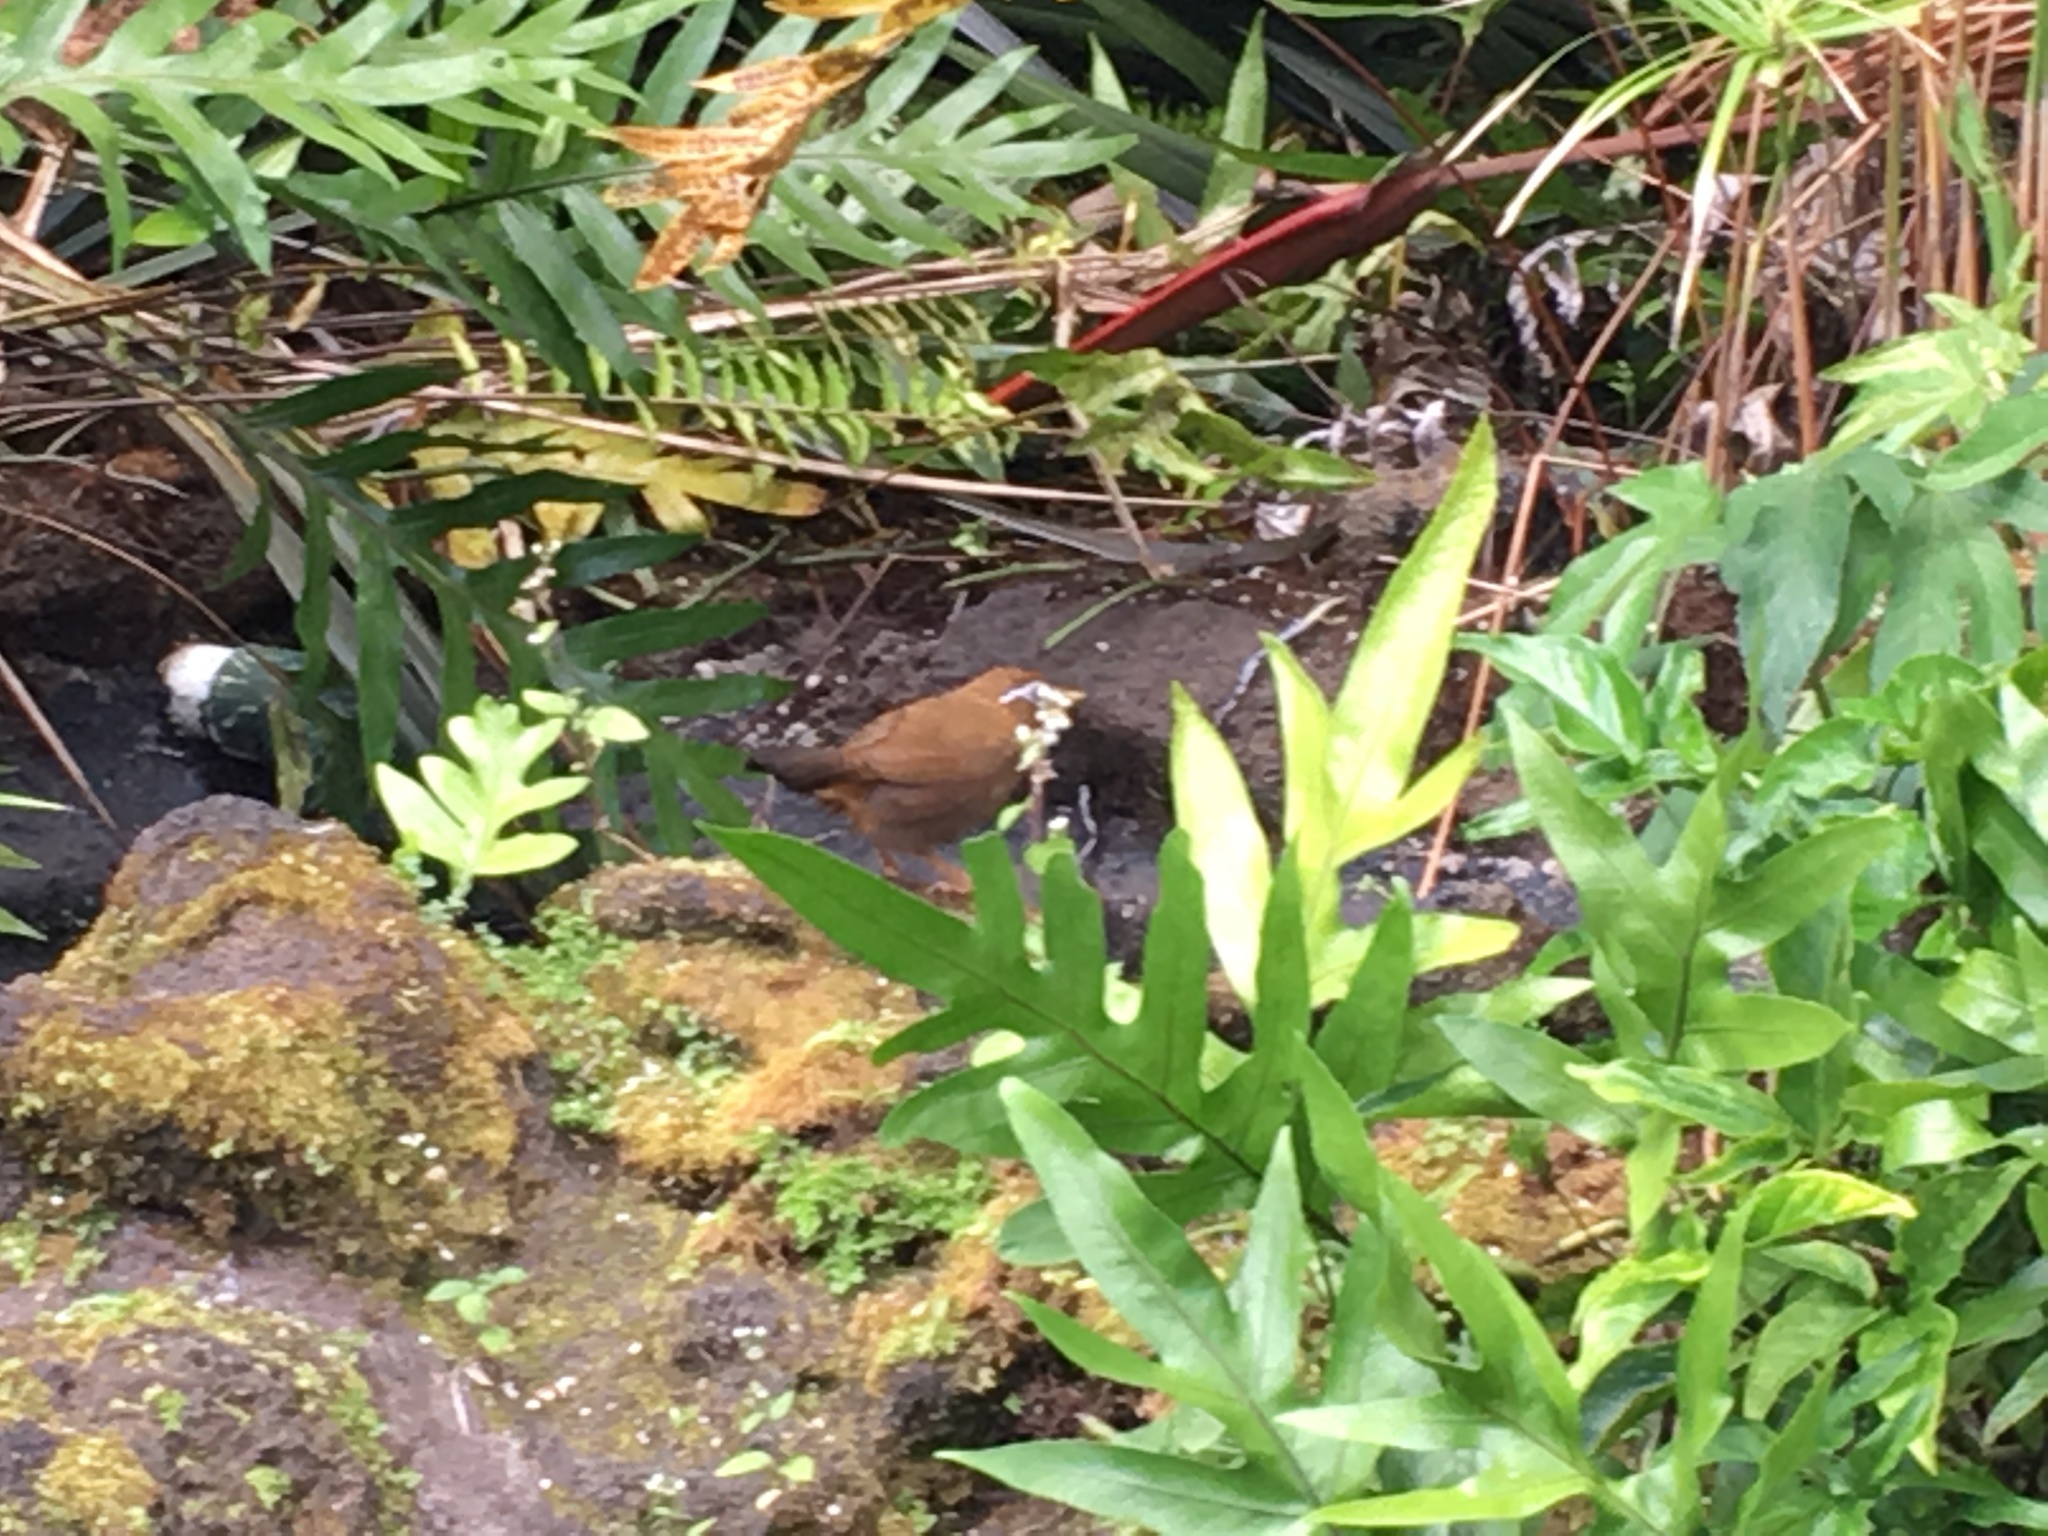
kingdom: Animalia
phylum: Chordata
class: Aves
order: Passeriformes
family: Leiothrichidae
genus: Garrulax
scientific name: Garrulax canorus
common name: Chinese hwamei
